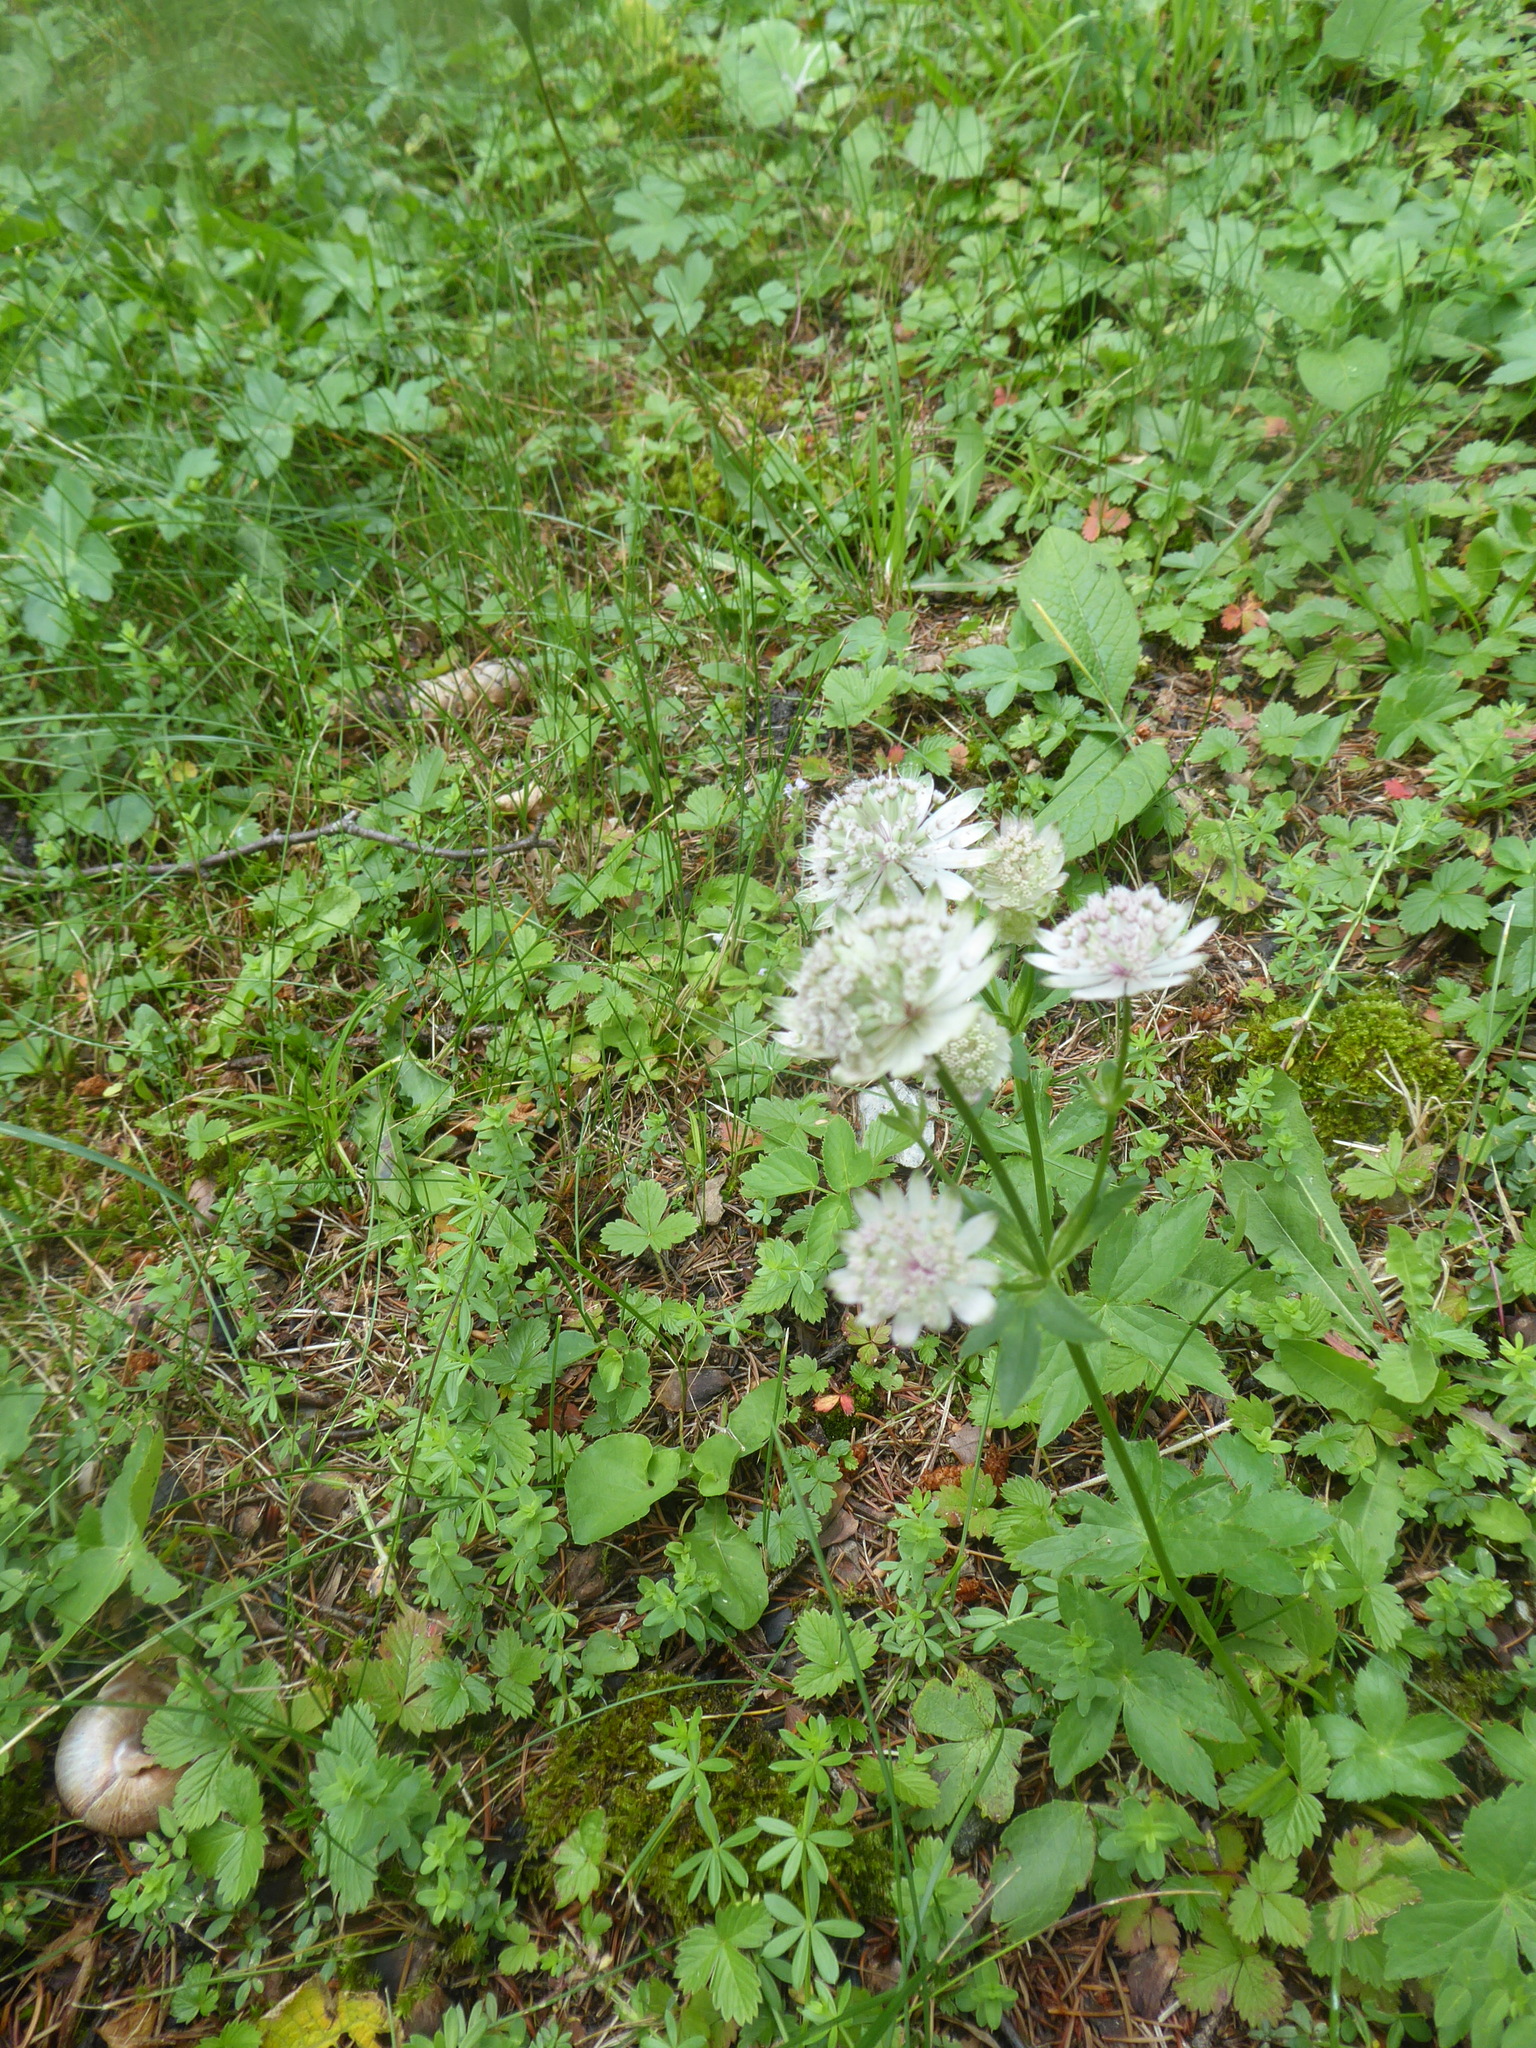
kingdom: Plantae
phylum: Tracheophyta
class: Magnoliopsida
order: Apiales
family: Apiaceae
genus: Astrantia
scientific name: Astrantia major
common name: Greater masterwort
